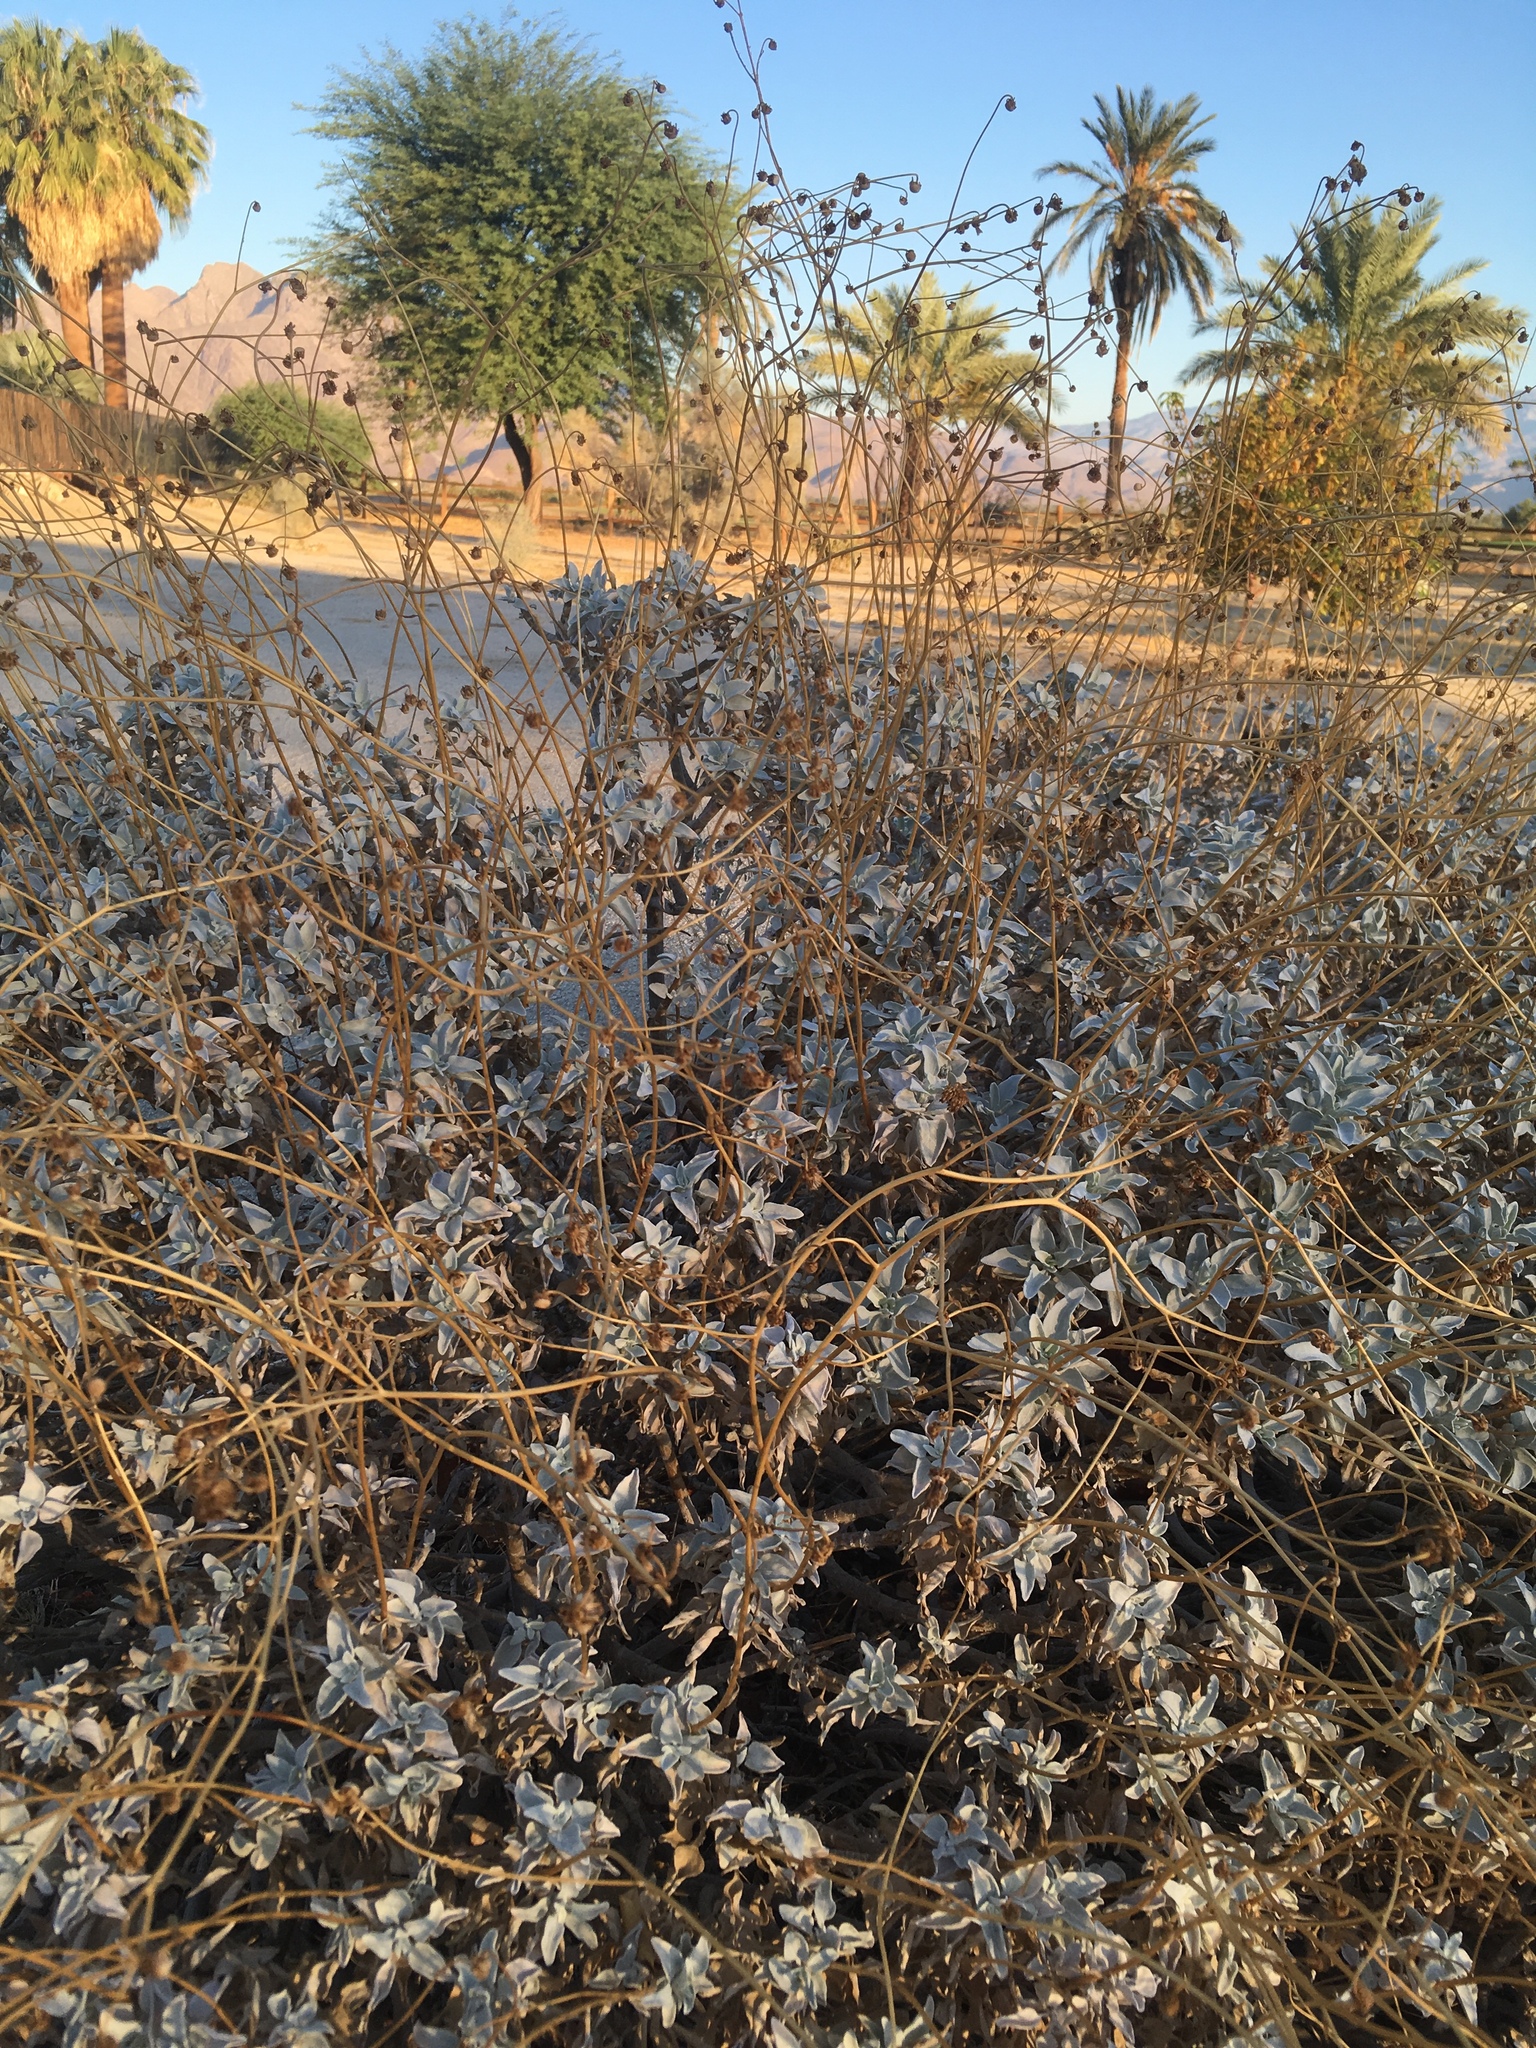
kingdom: Plantae
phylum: Tracheophyta
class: Magnoliopsida
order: Asterales
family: Asteraceae
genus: Encelia
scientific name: Encelia farinosa
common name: Brittlebush
